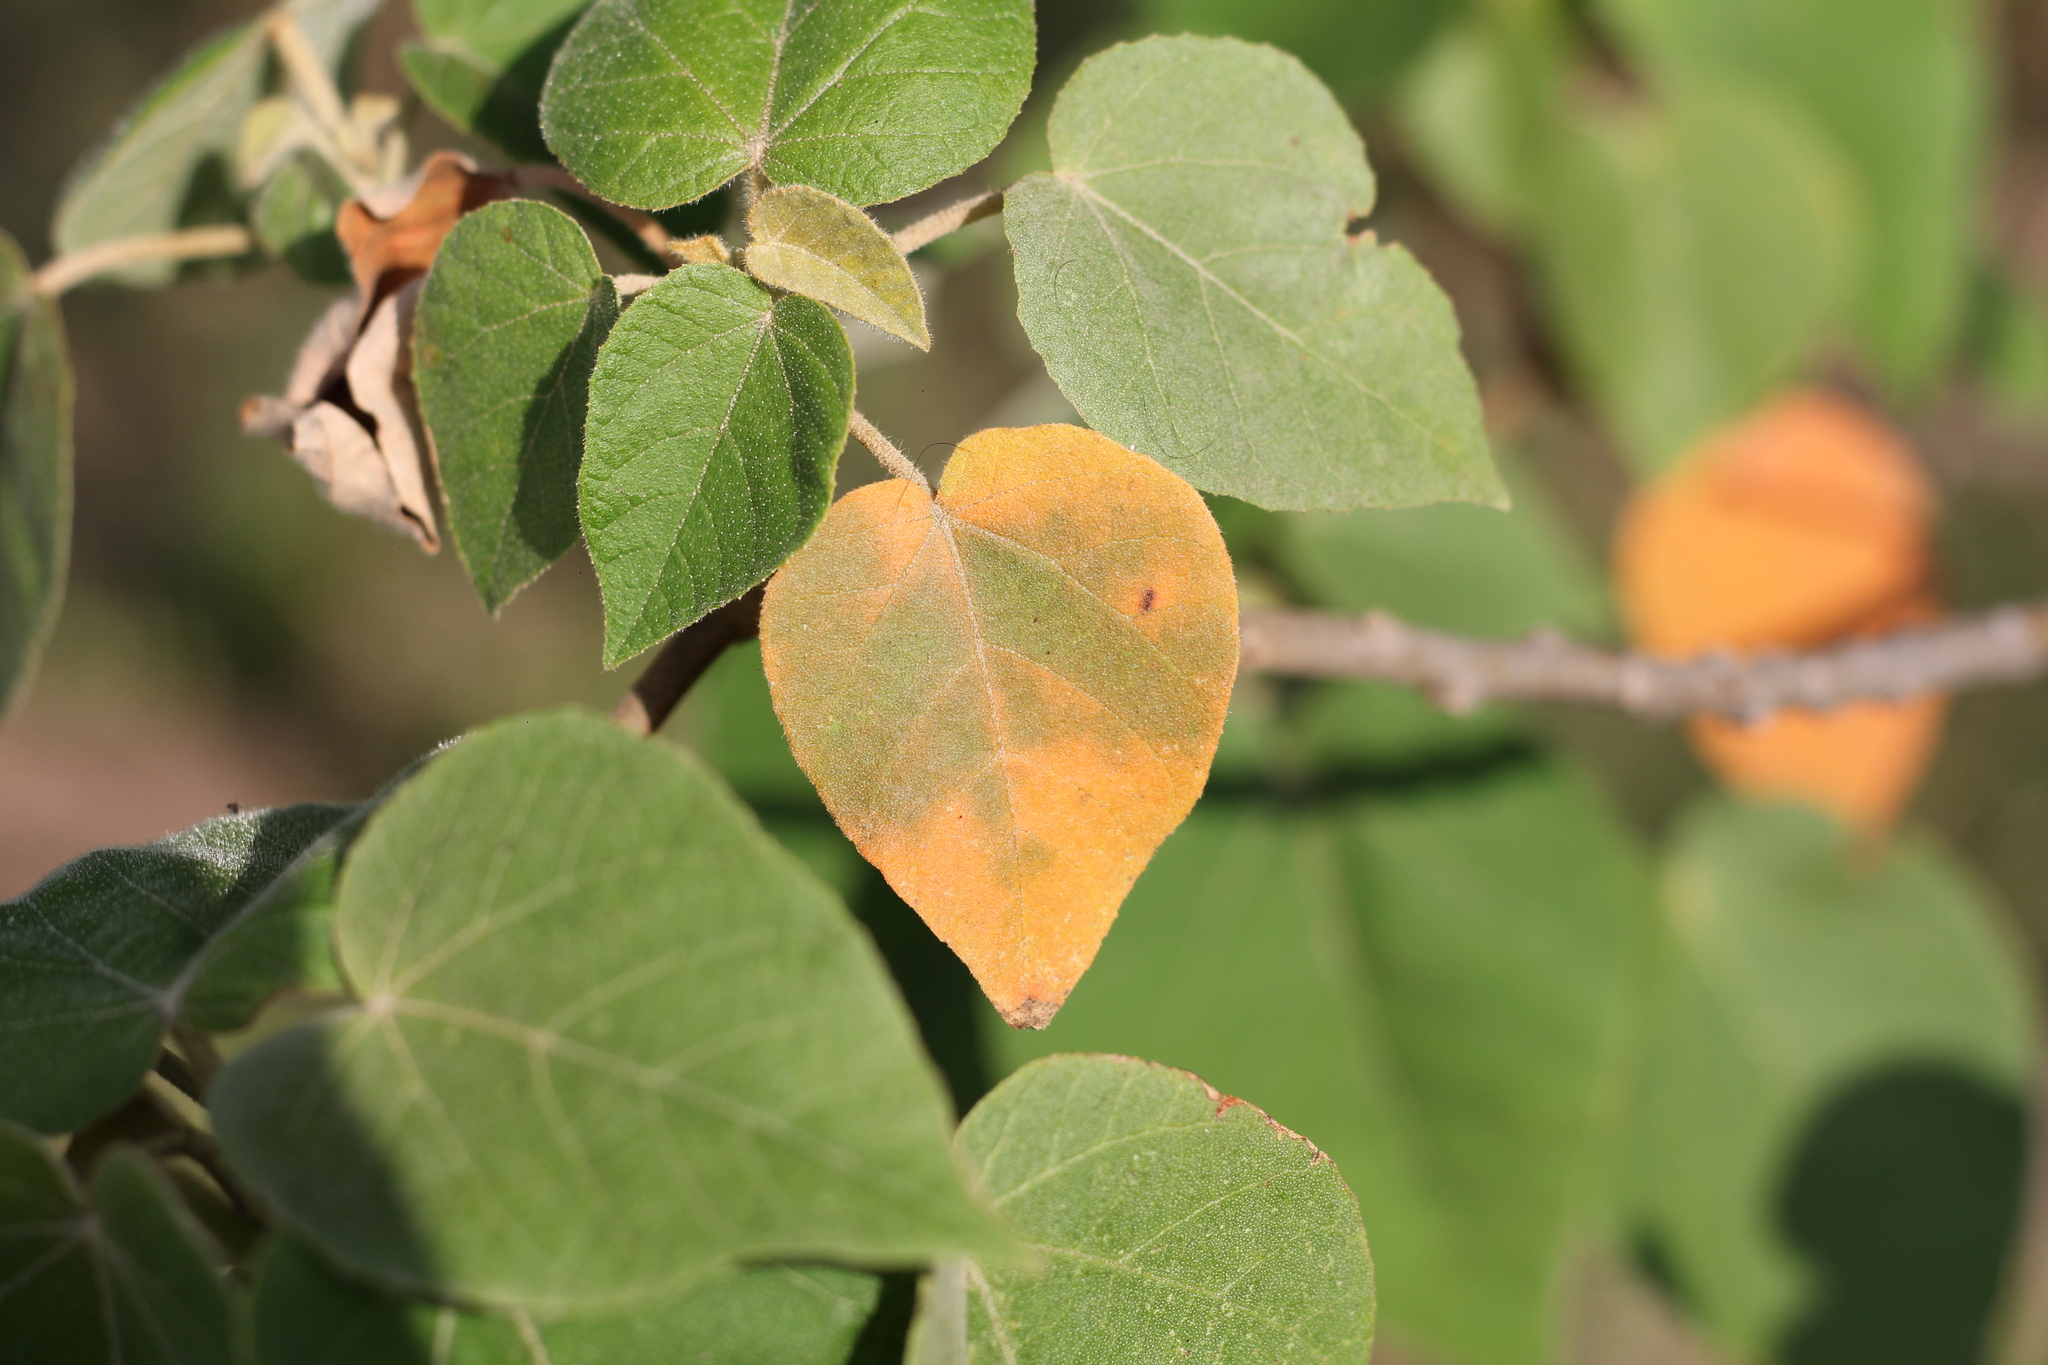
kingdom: Plantae
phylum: Tracheophyta
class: Magnoliopsida
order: Malpighiales
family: Euphorbiaceae
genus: Croton
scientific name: Croton urucurana
